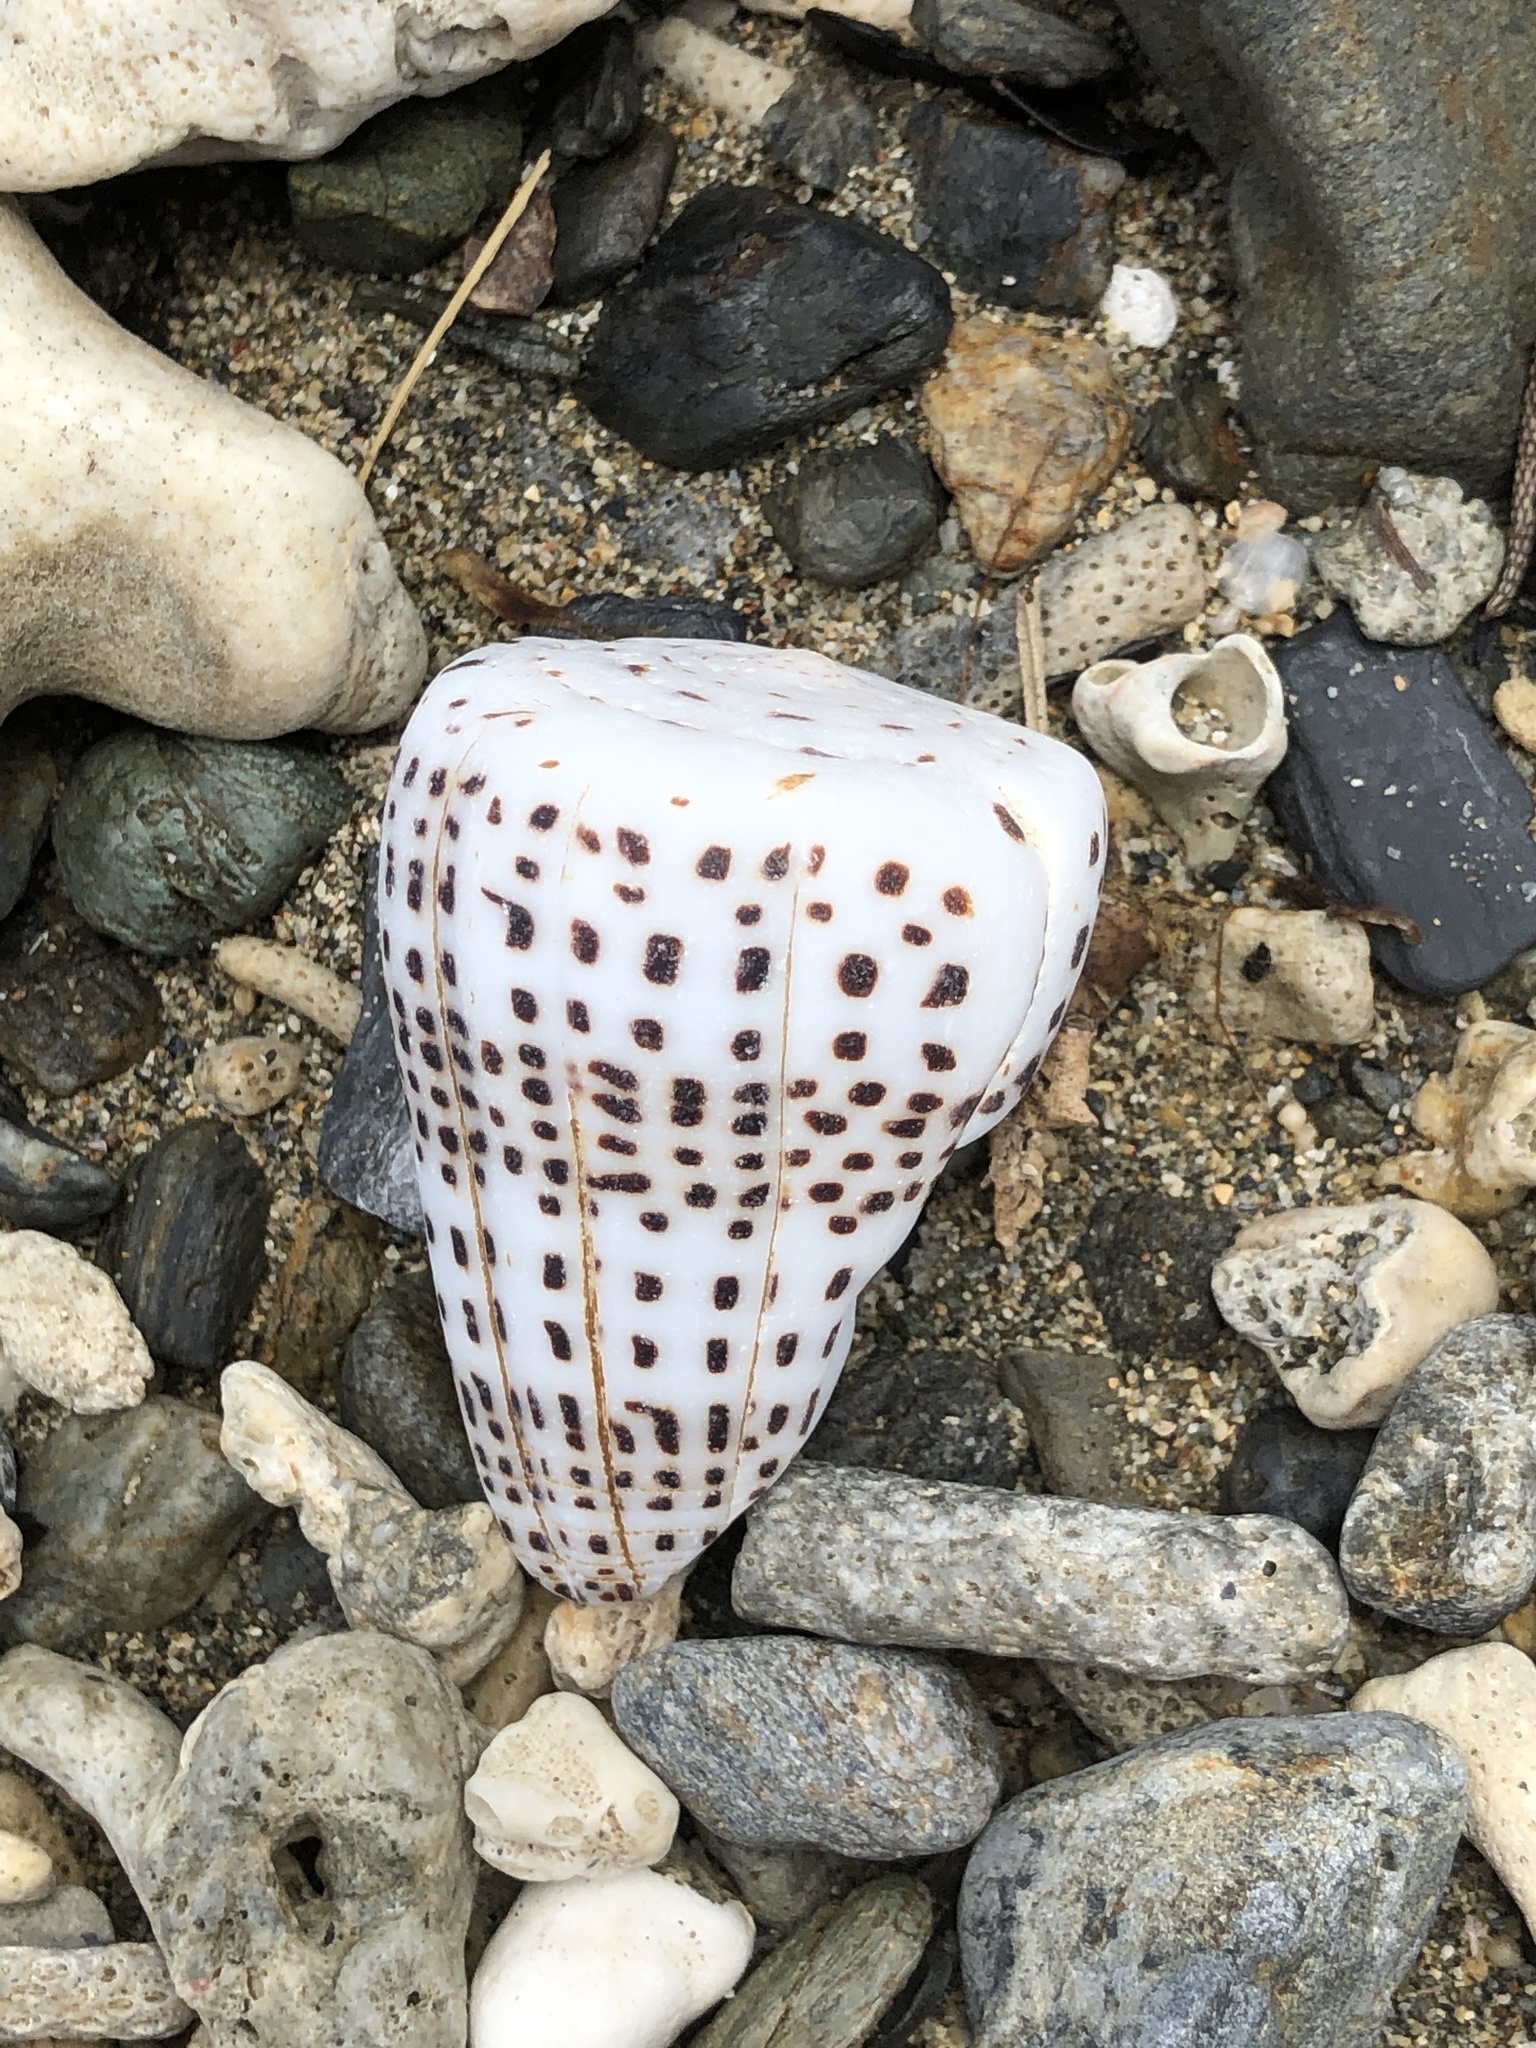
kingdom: Animalia
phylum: Mollusca
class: Gastropoda
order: Neogastropoda
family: Conidae
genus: Conus
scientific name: Conus eburneus
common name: Ivory cone
